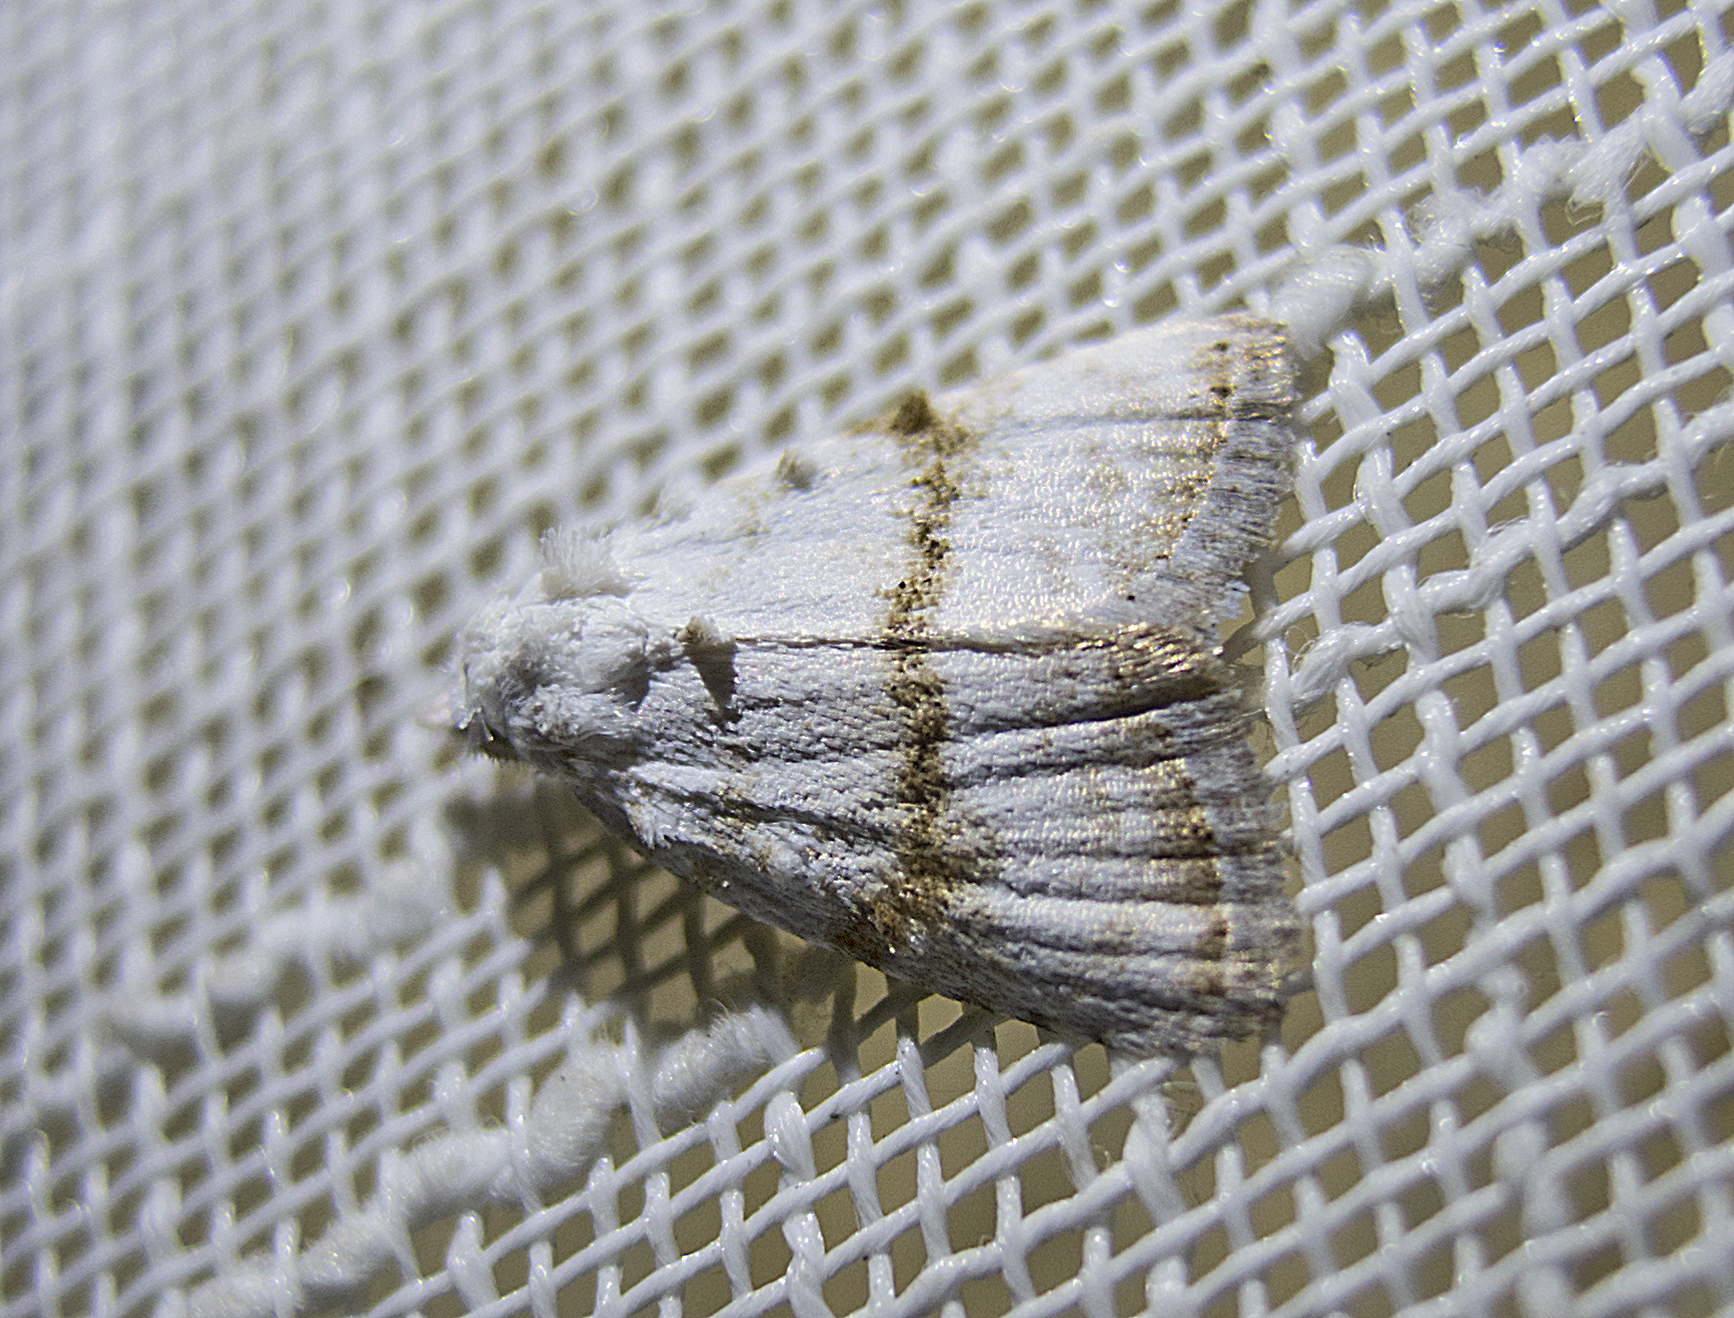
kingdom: Animalia
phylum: Arthropoda
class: Insecta
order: Lepidoptera
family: Nolidae
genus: Meganola
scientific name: Meganola albula
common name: Kent black arches
